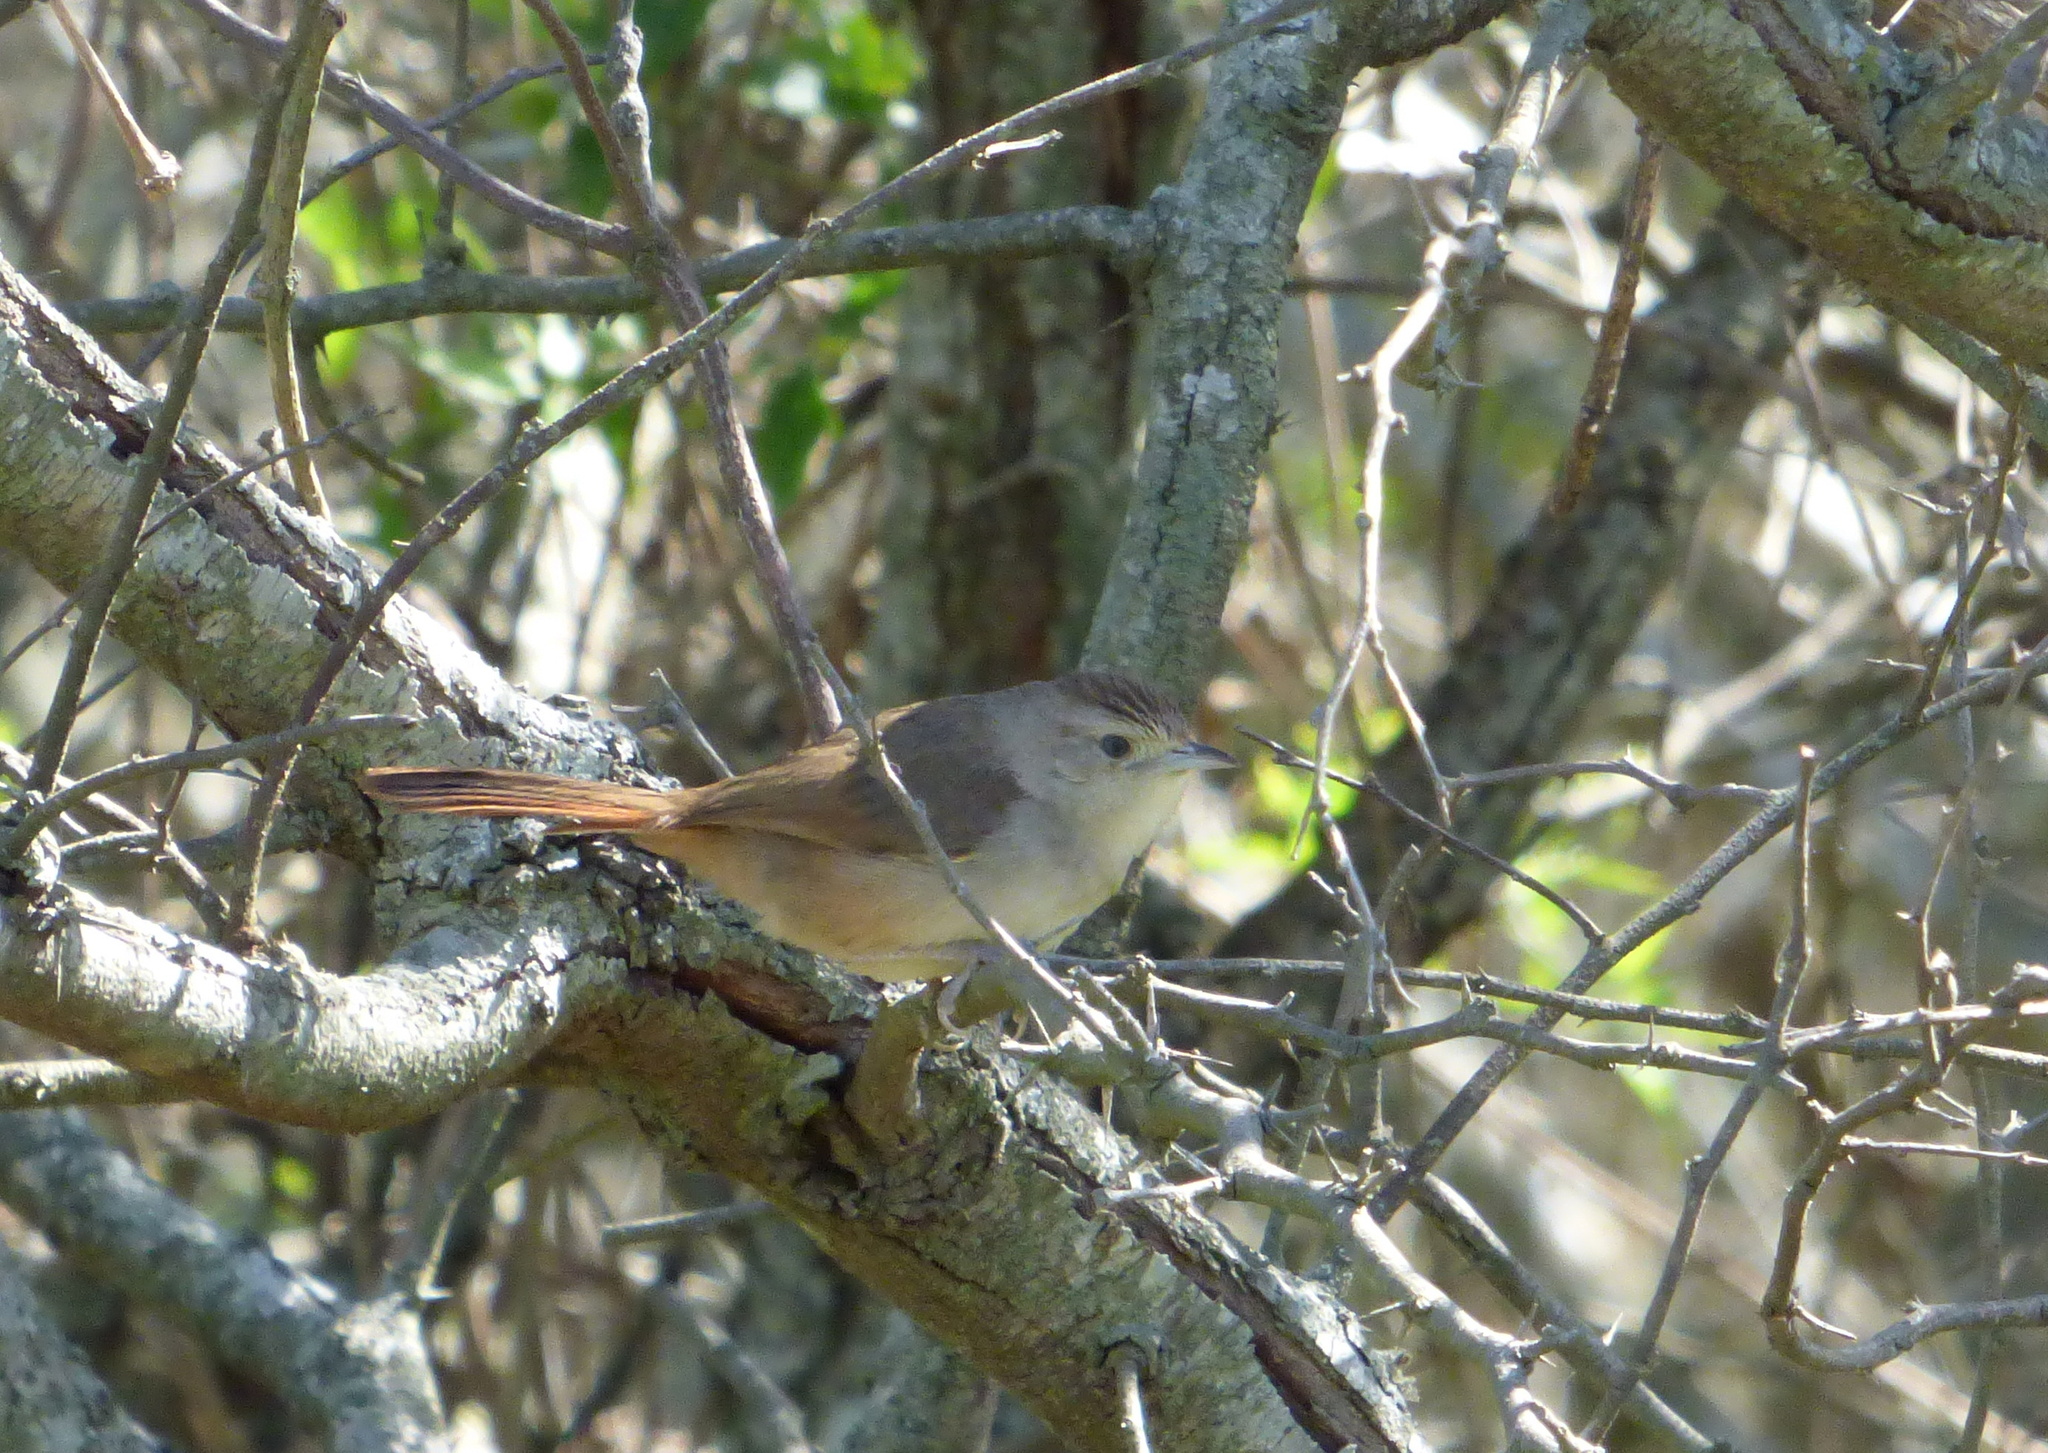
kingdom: Animalia
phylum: Chordata
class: Aves
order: Passeriformes
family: Furnariidae
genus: Phacellodomus
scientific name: Phacellodomus sibilatrix
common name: Little thornbird
